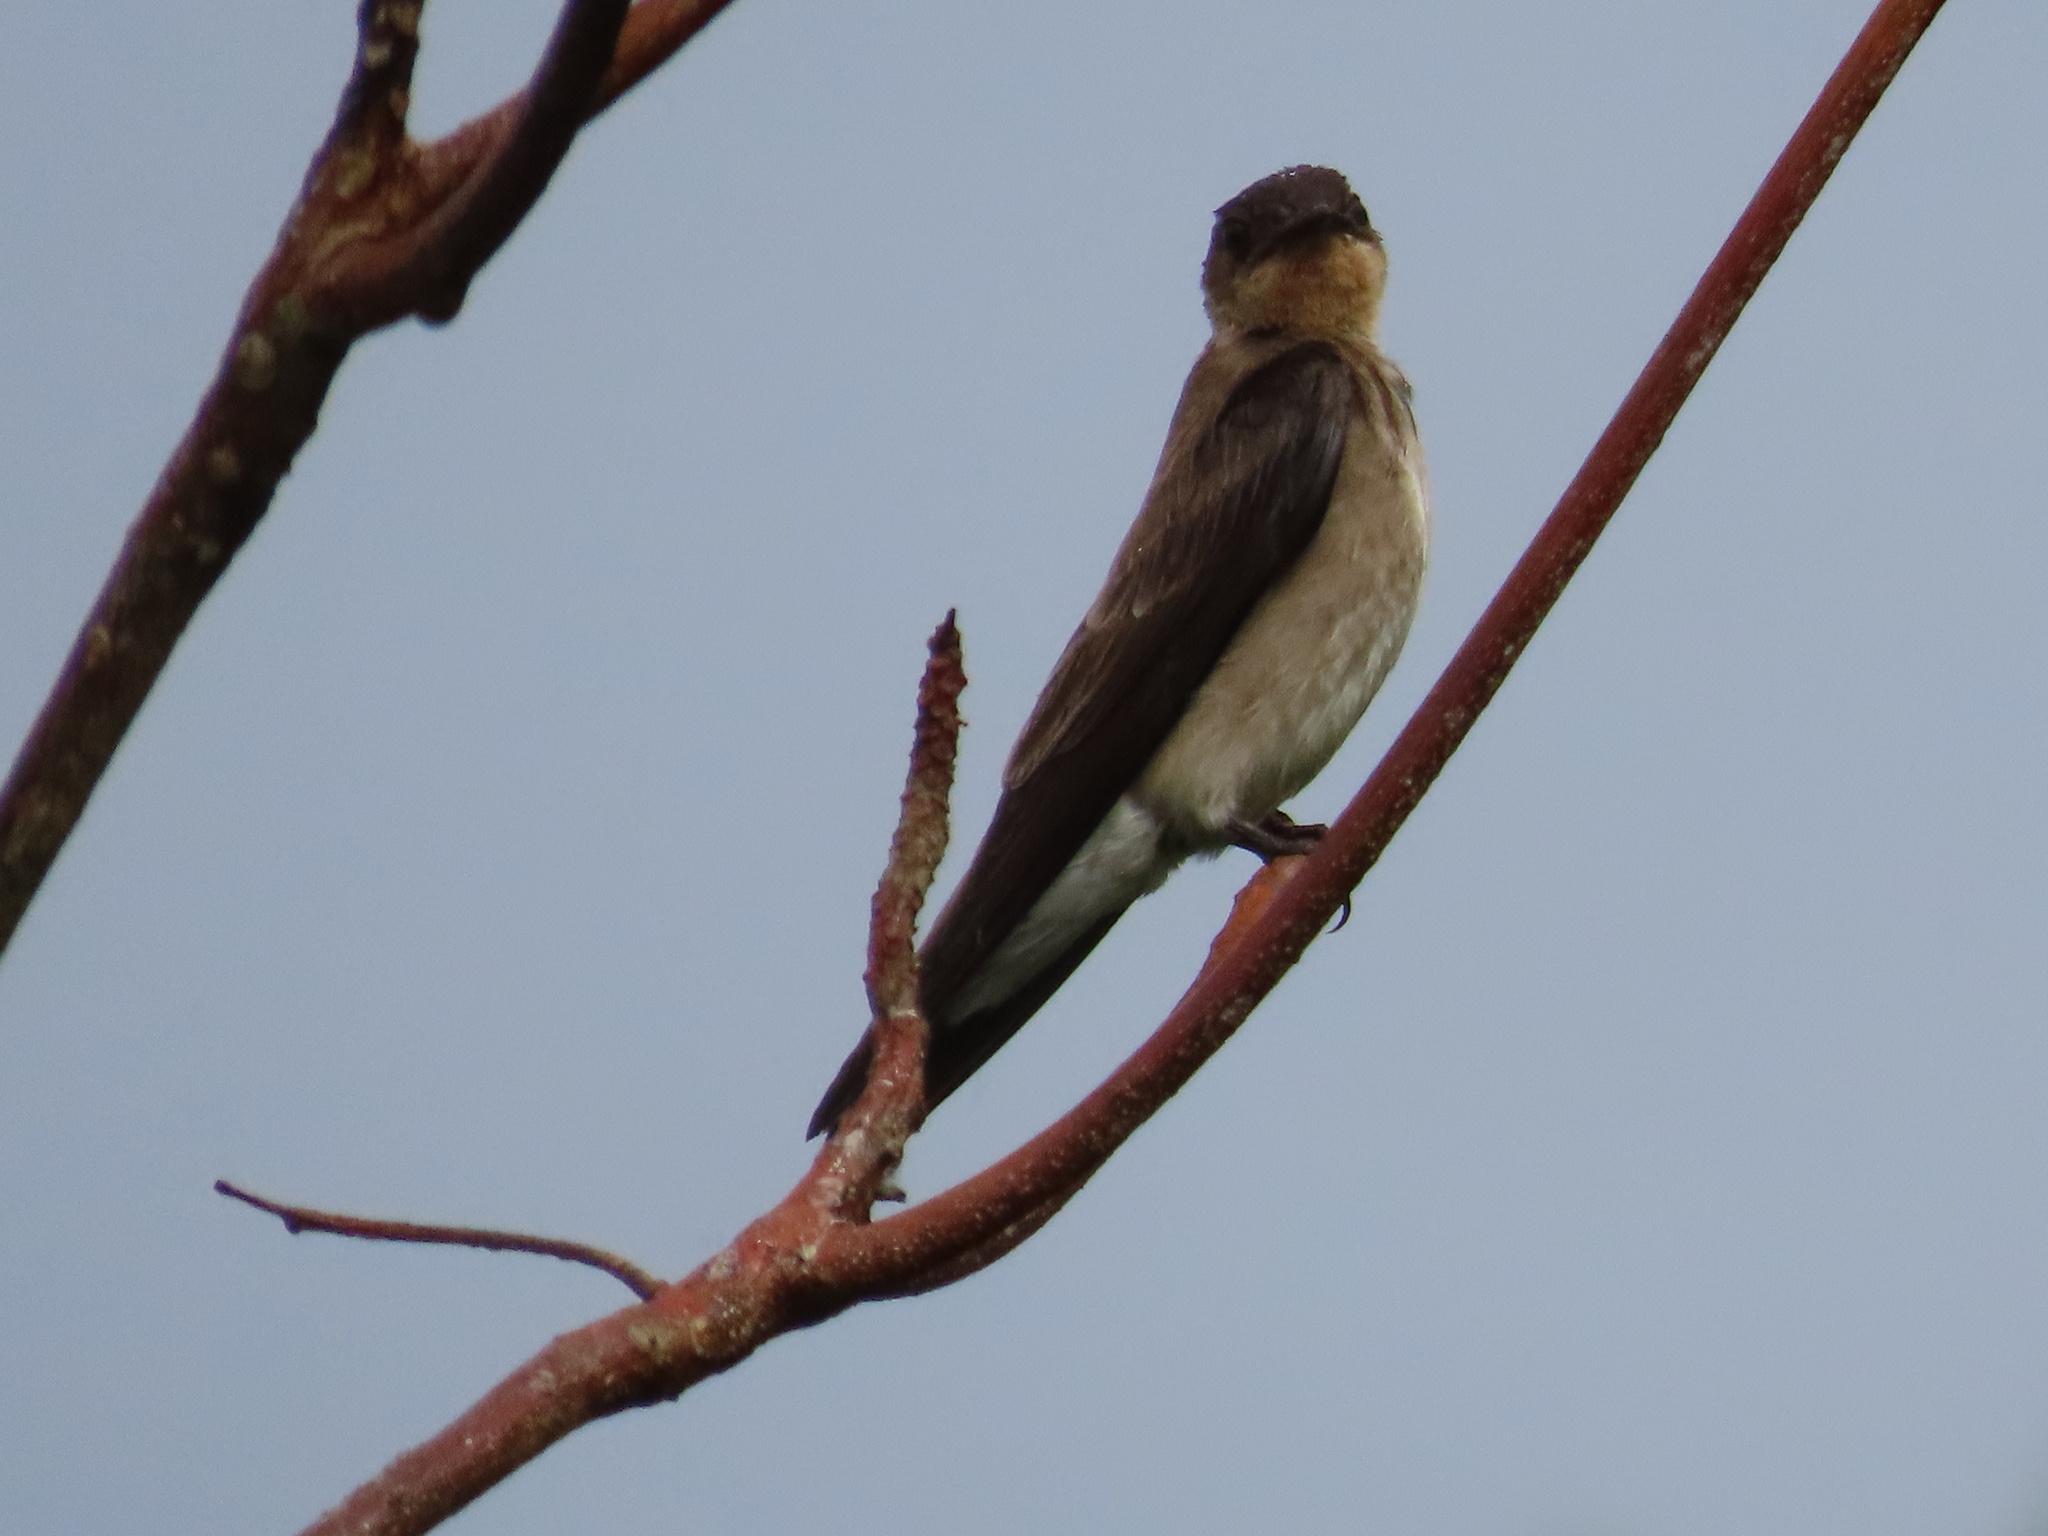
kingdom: Animalia
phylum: Chordata
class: Aves
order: Passeriformes
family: Hirundinidae
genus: Stelgidopteryx
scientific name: Stelgidopteryx ruficollis
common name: Southern rough-winged swallow
